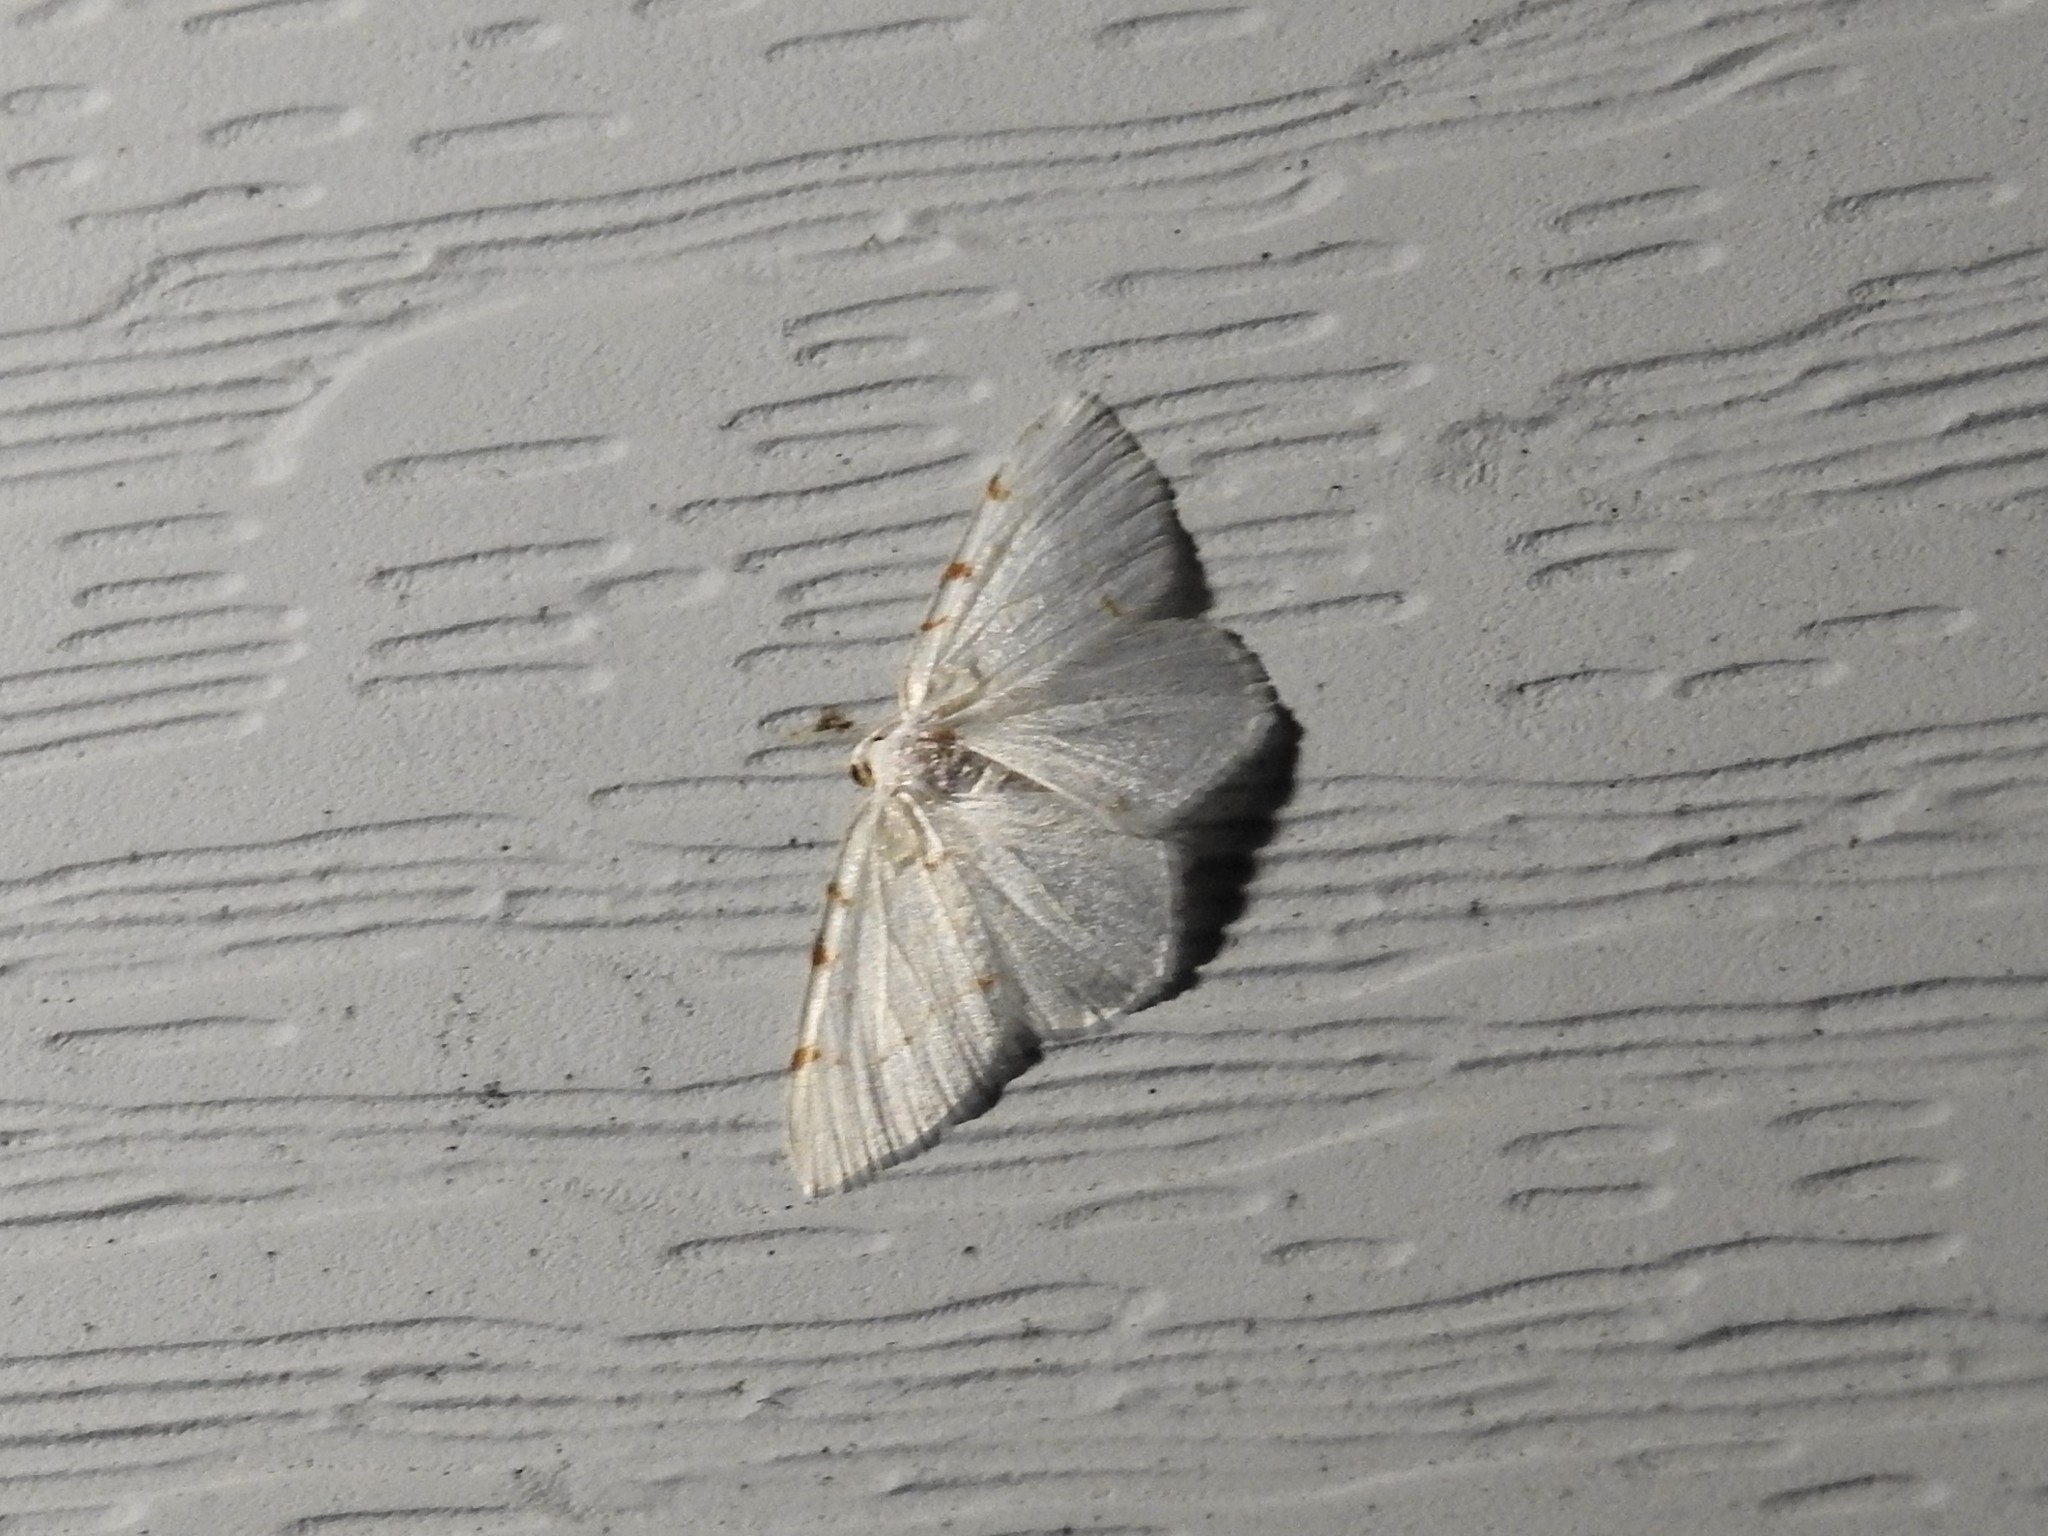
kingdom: Animalia
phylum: Arthropoda
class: Insecta
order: Lepidoptera
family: Geometridae
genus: Macaria
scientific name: Macaria pustularia
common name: Lesser maple spanworm moth
